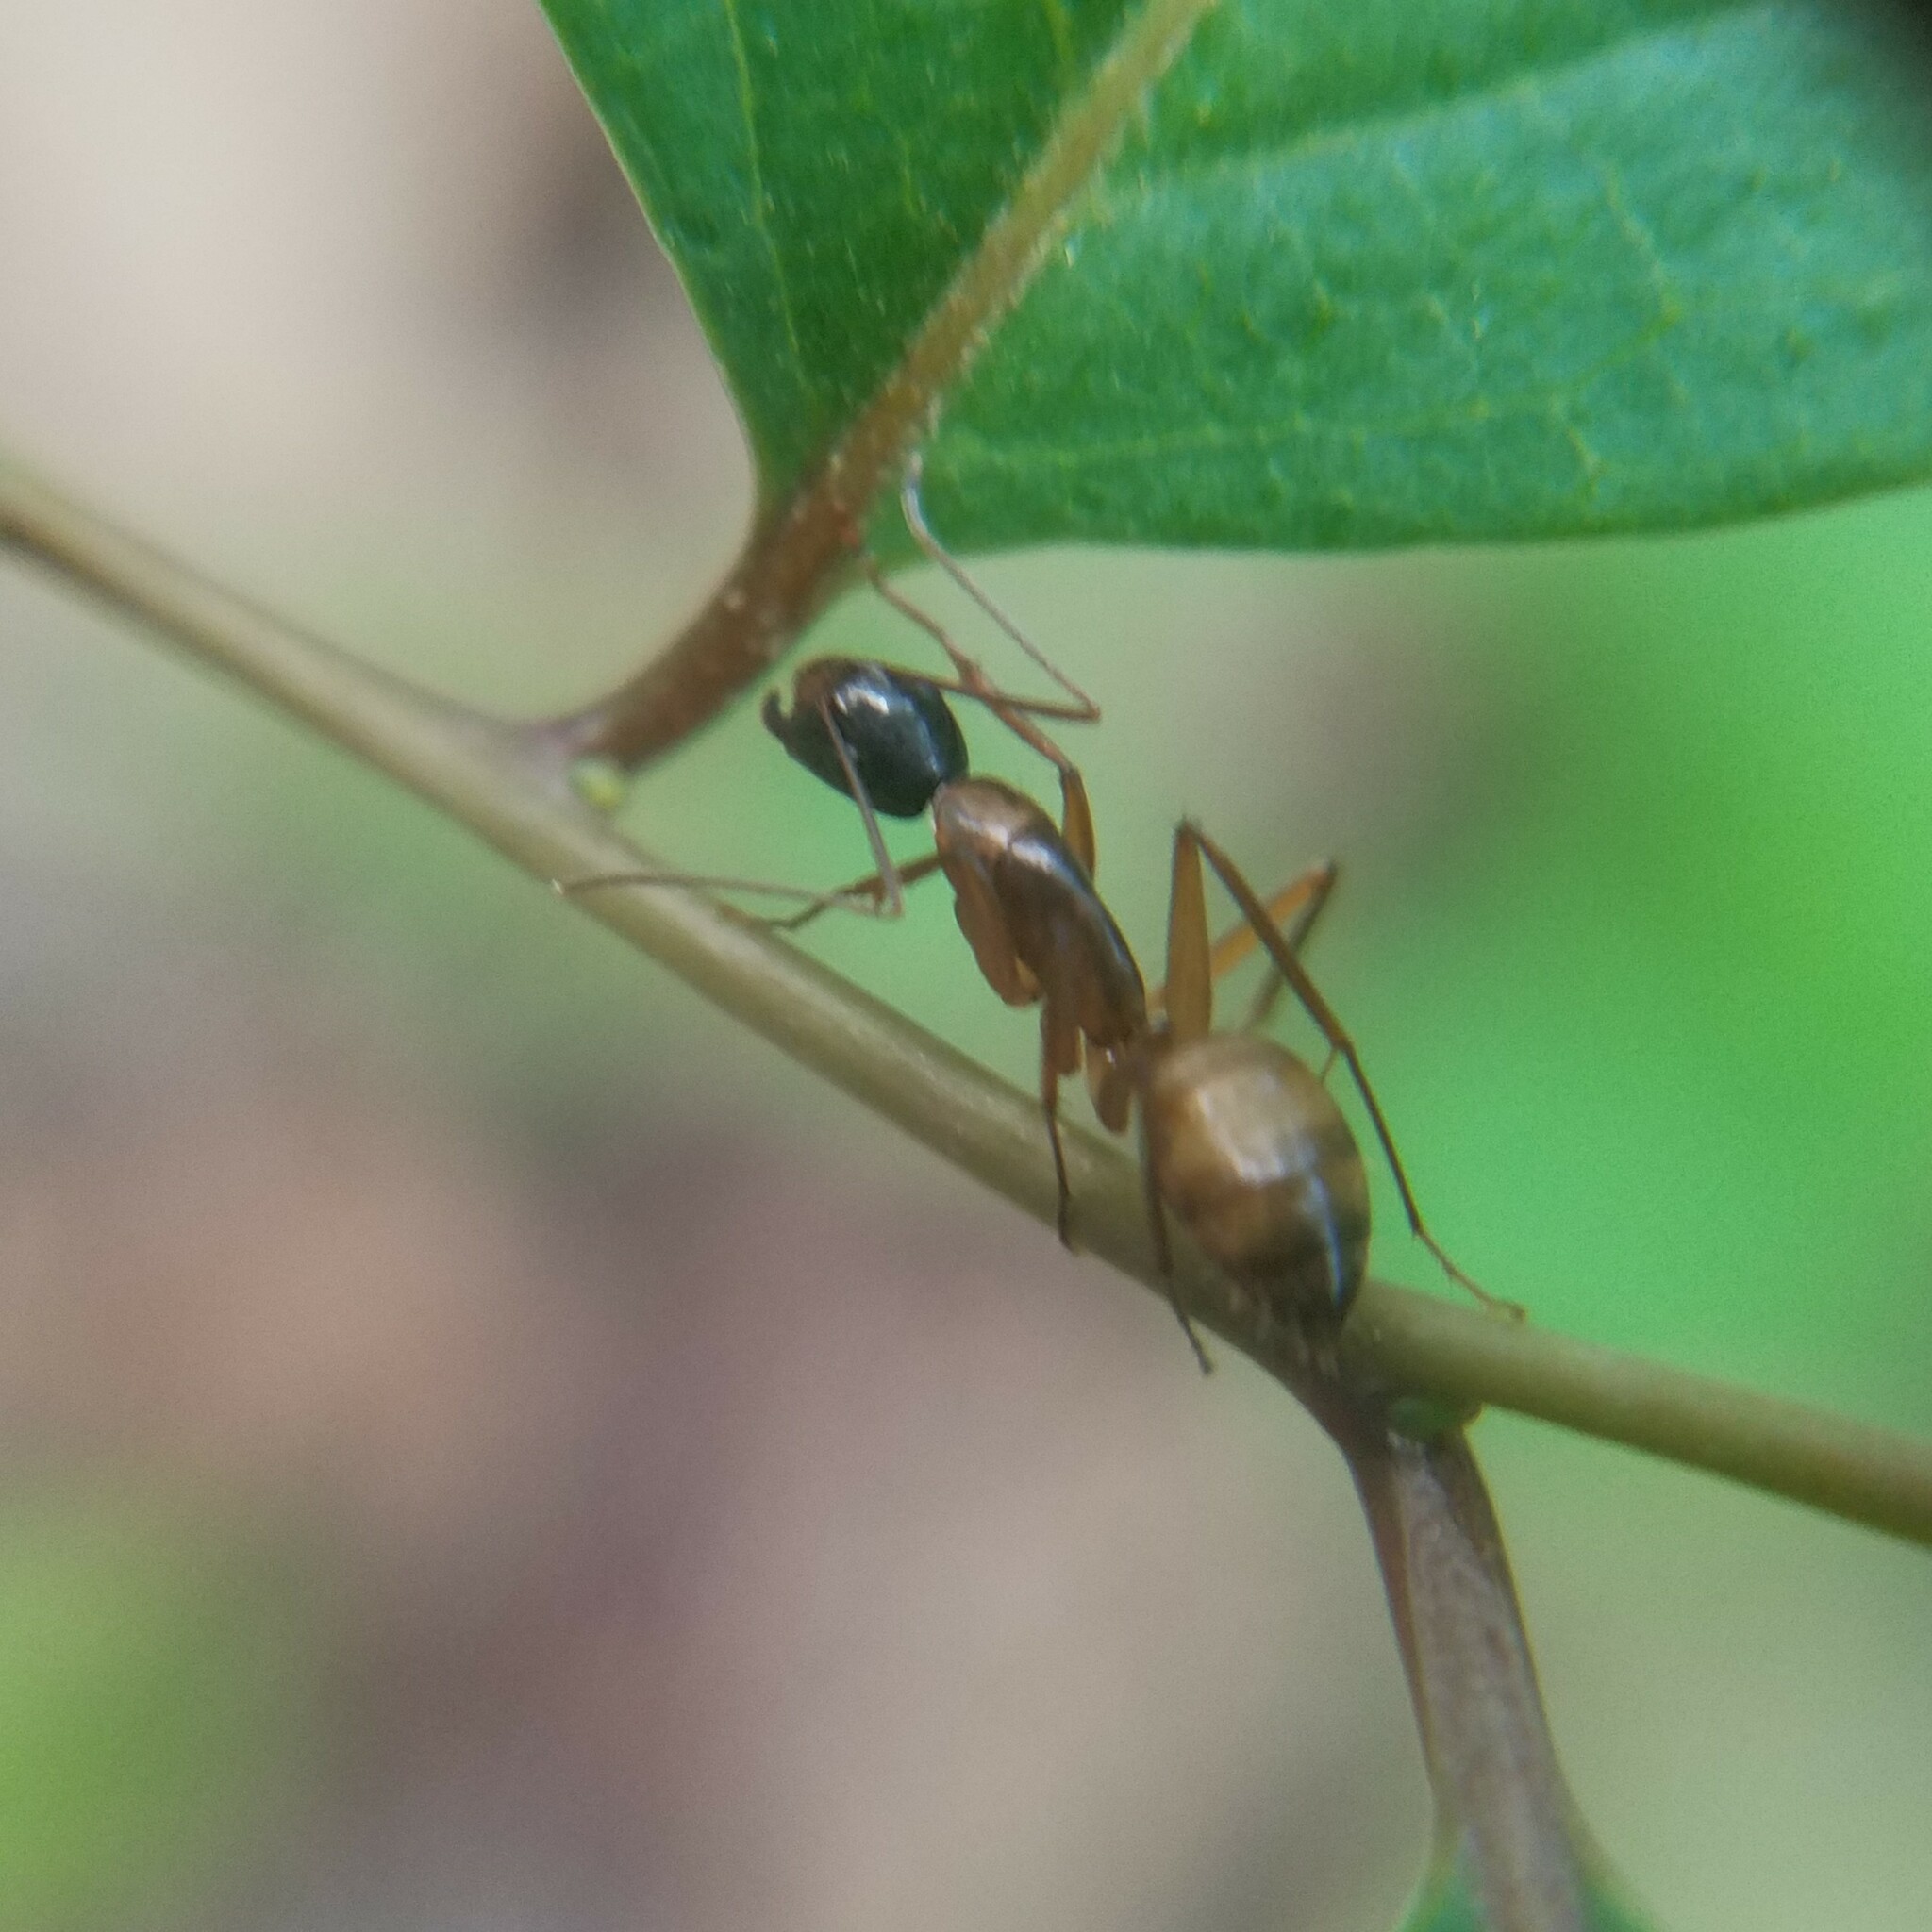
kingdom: Animalia
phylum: Arthropoda
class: Insecta
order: Hymenoptera
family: Formicidae
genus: Camponotus
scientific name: Camponotus americanus
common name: American carpenter ant
